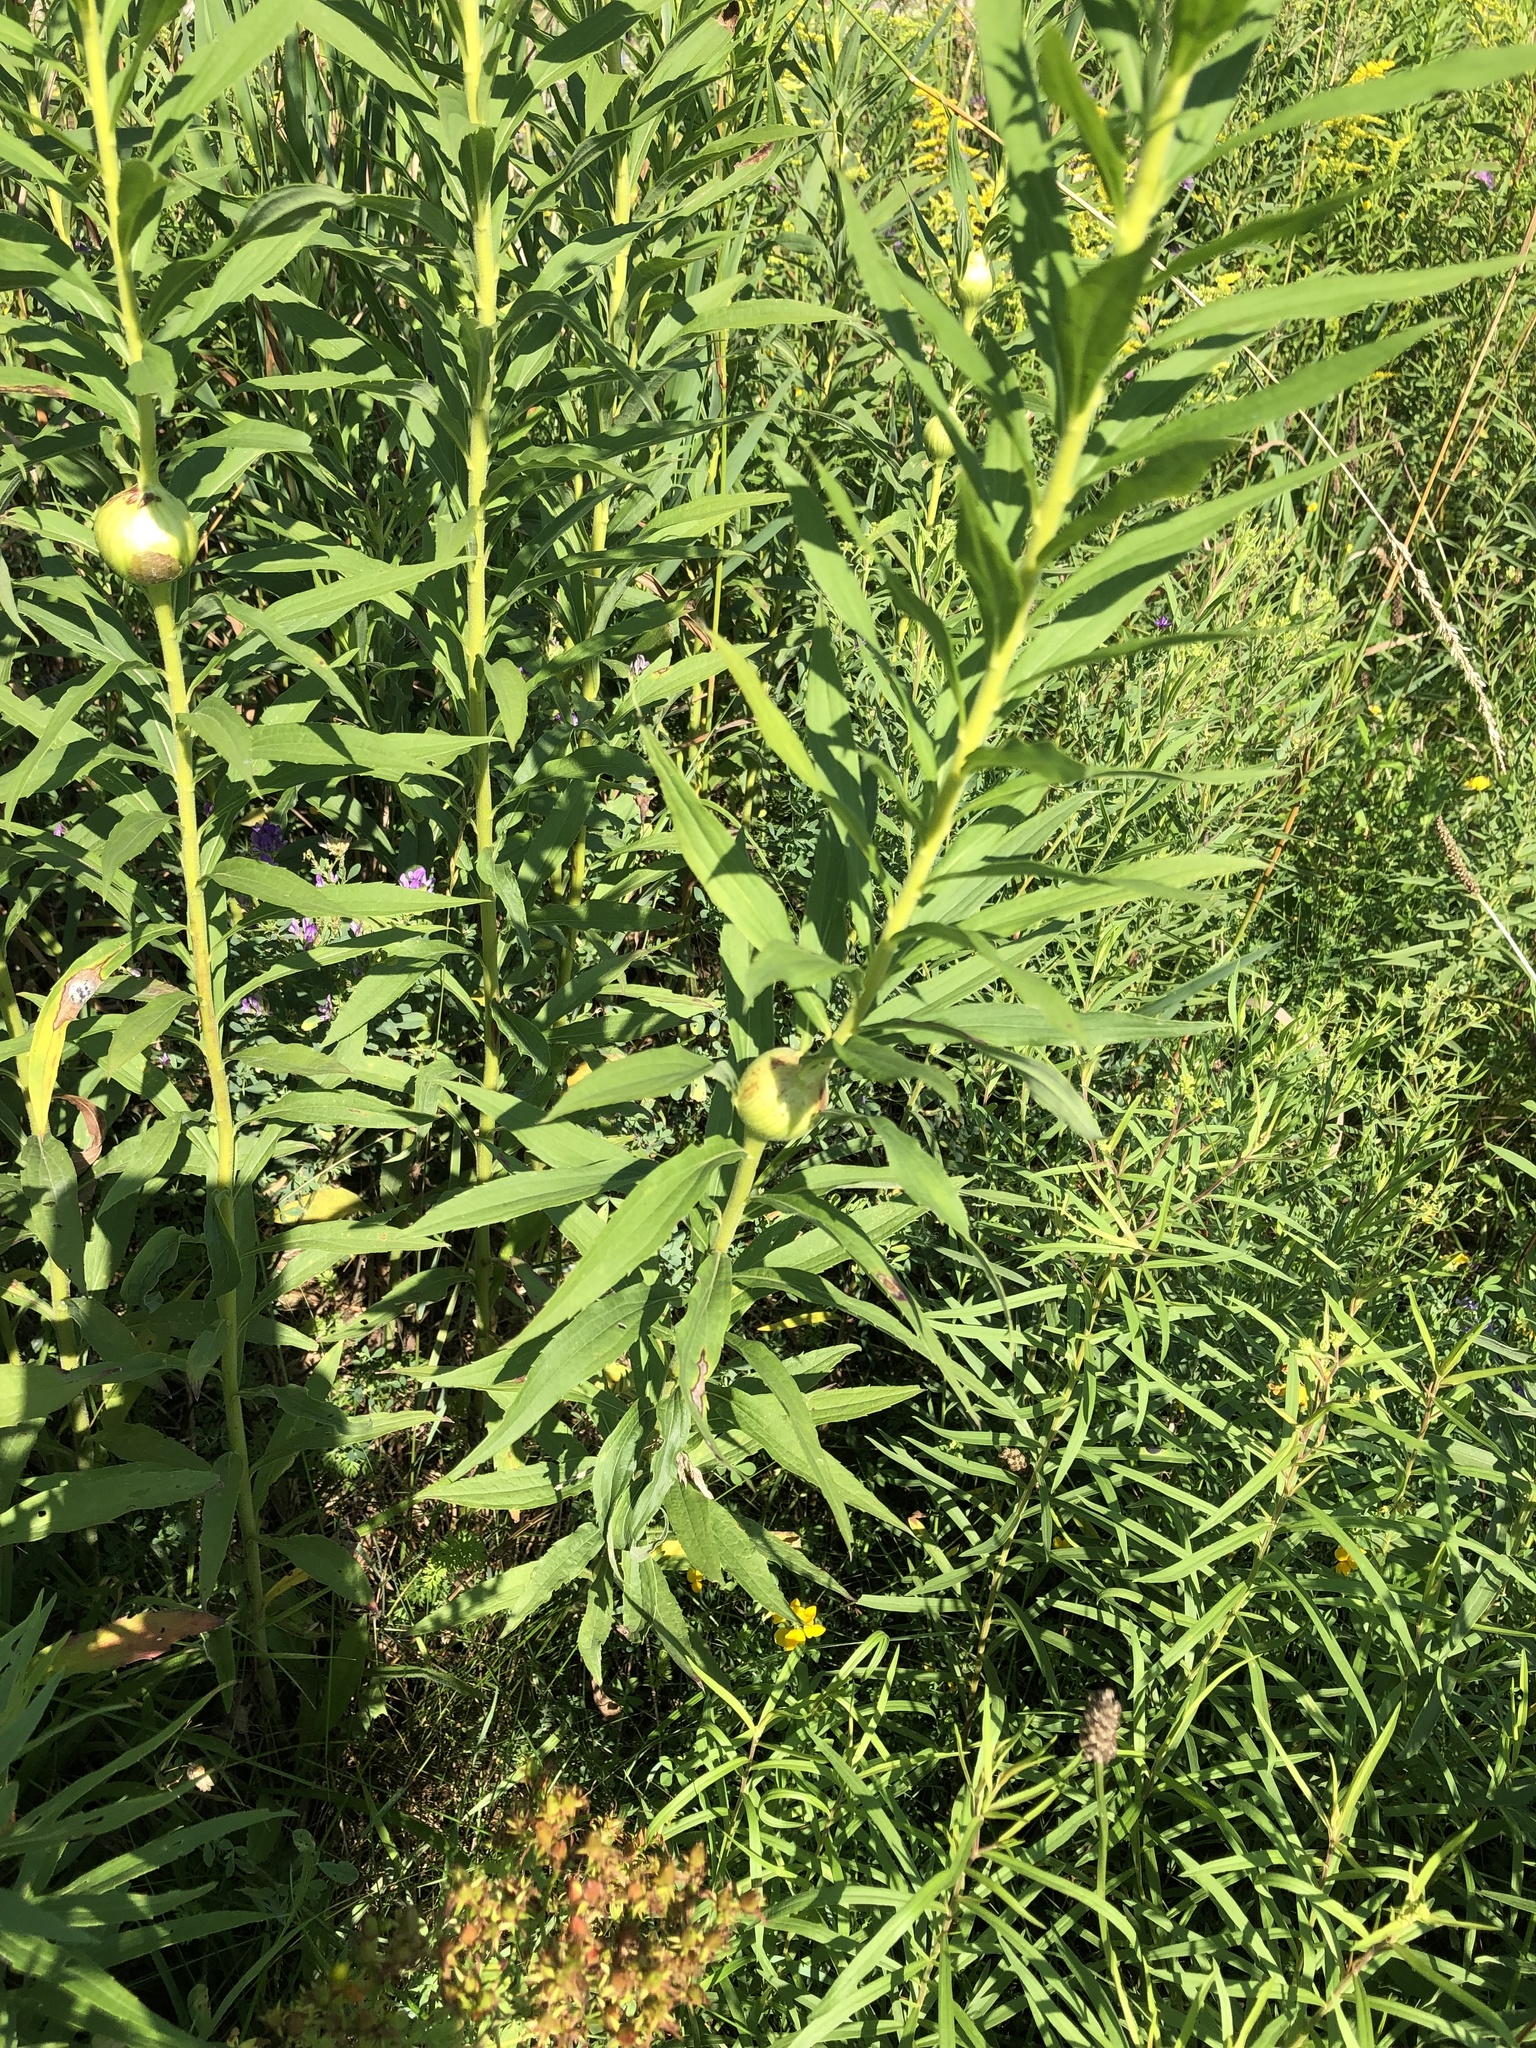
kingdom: Animalia
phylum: Arthropoda
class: Insecta
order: Diptera
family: Tephritidae
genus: Eurosta
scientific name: Eurosta solidaginis
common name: Goldenrod gall fly
